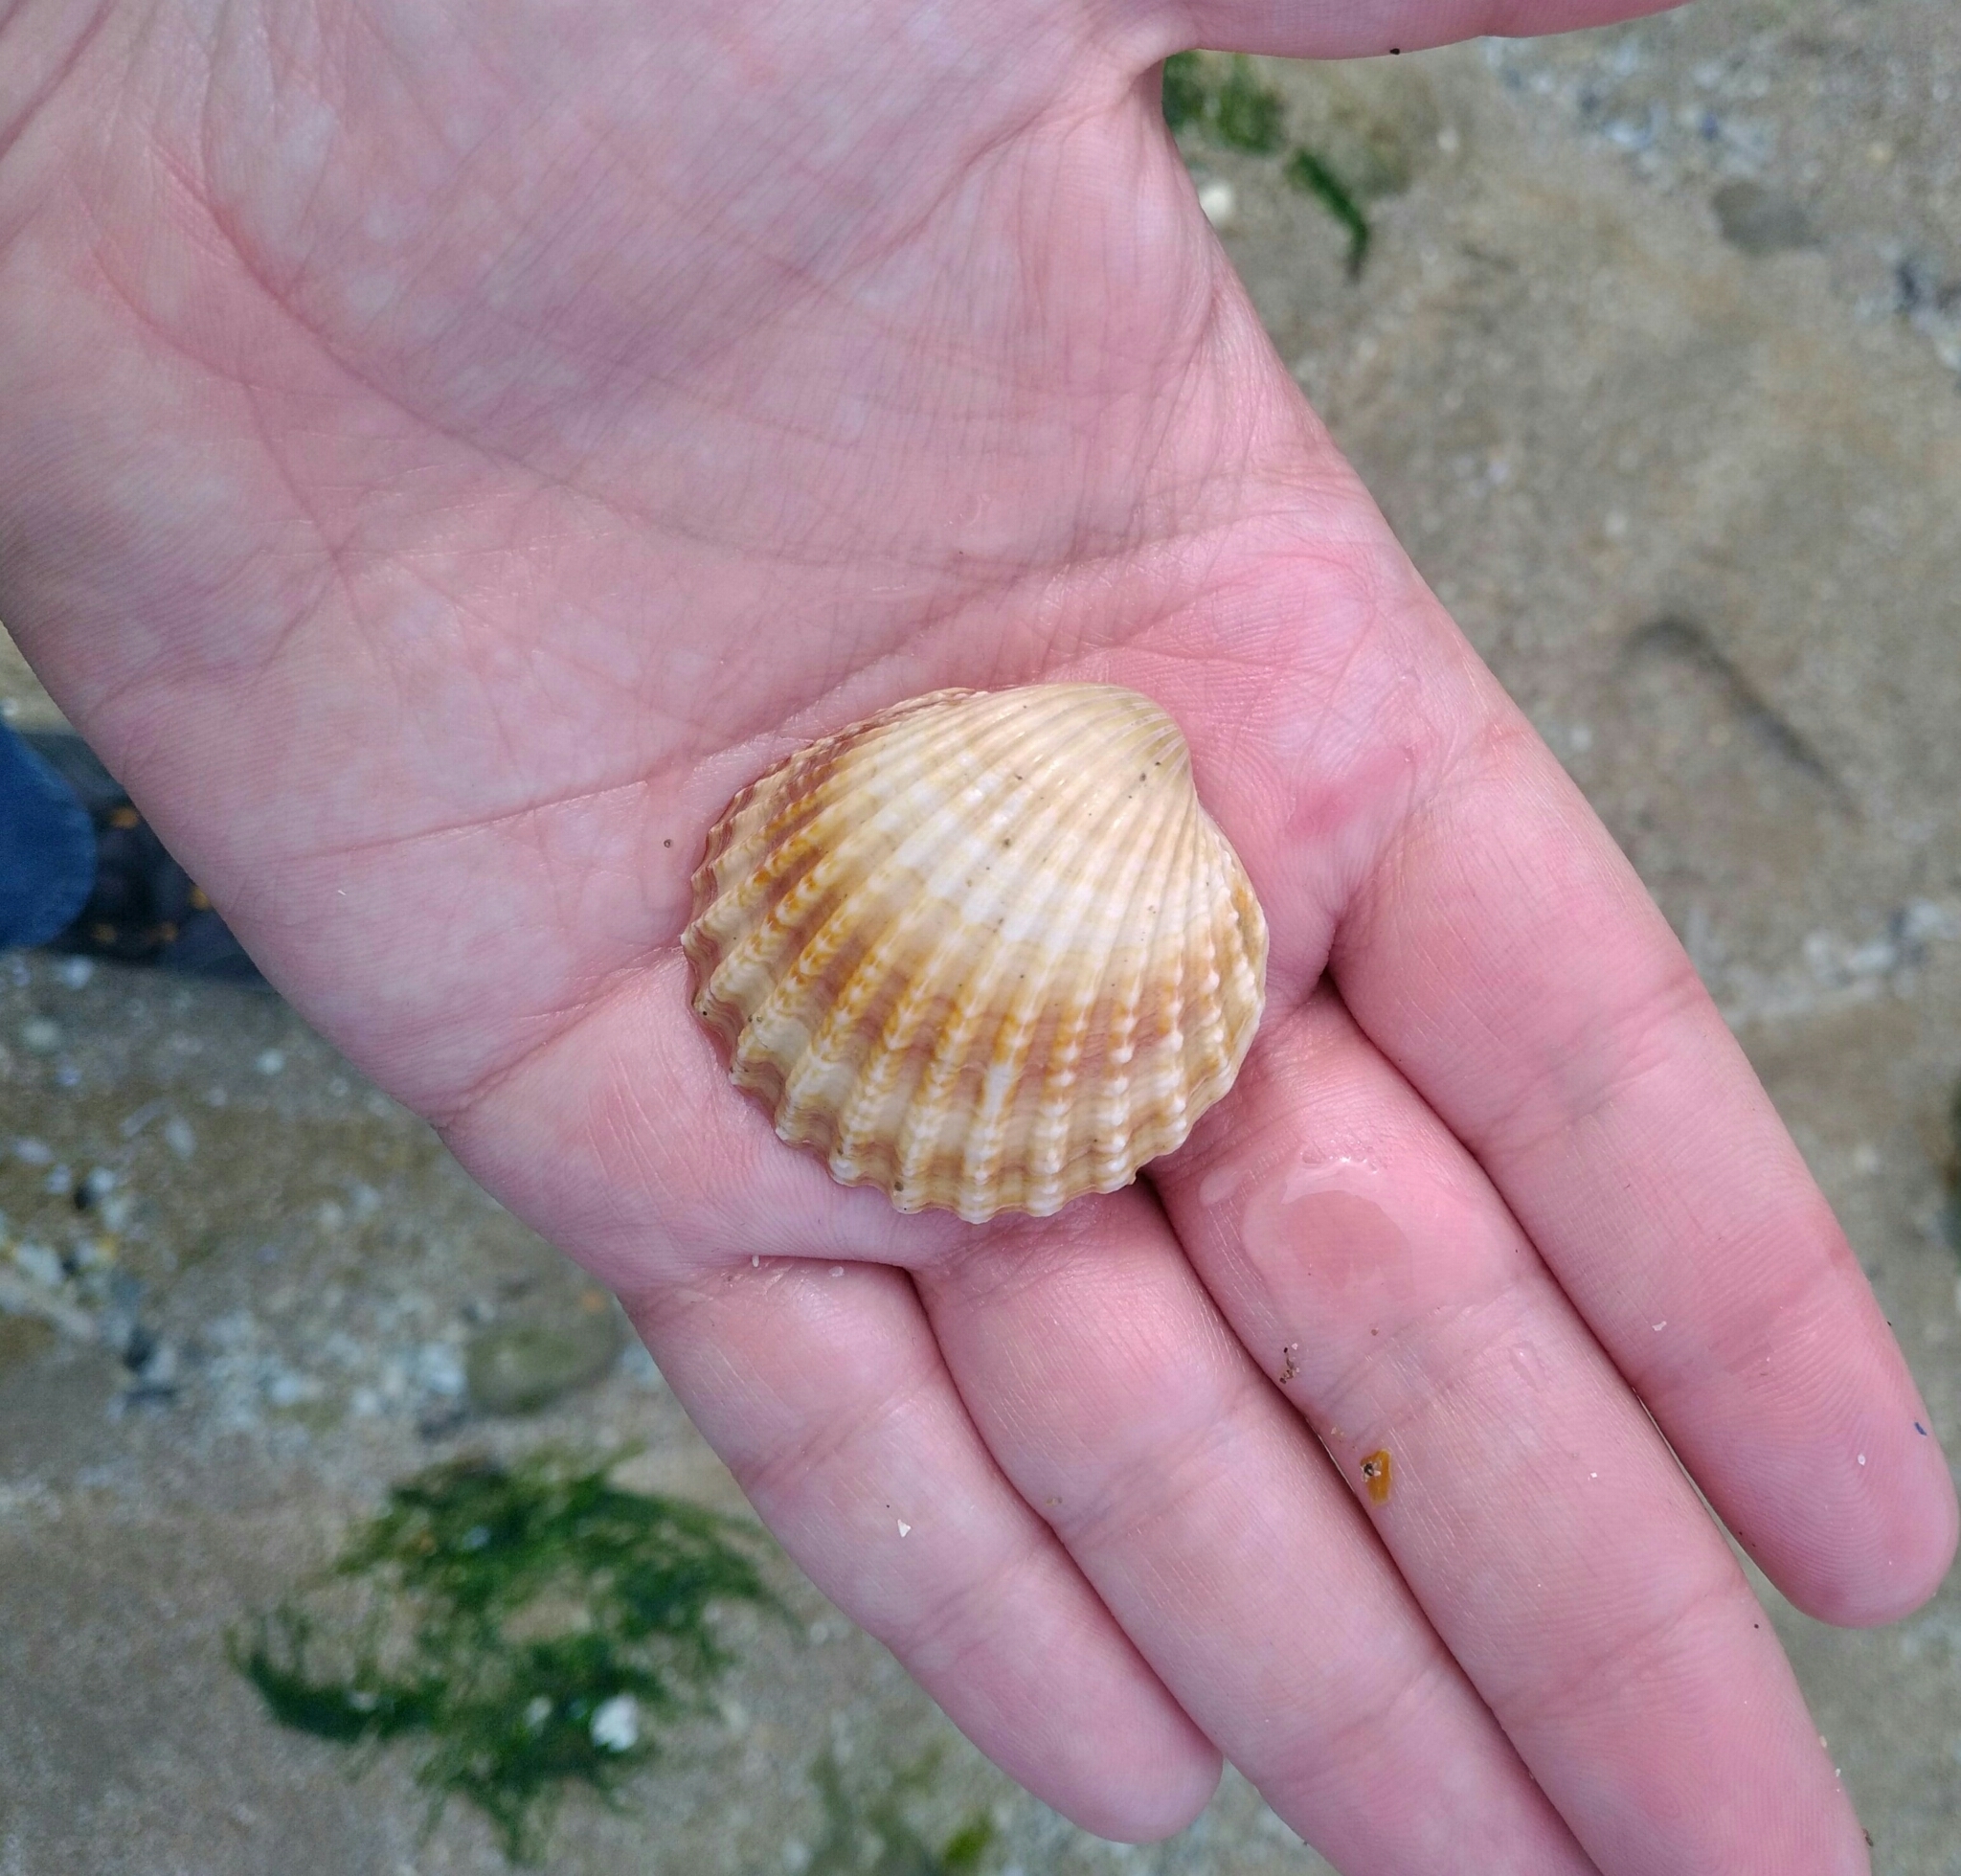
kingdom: Animalia
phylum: Mollusca
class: Bivalvia
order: Cardiida
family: Cardiidae
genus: Acanthocardia
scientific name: Acanthocardia tuberculata
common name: Rough cockle
